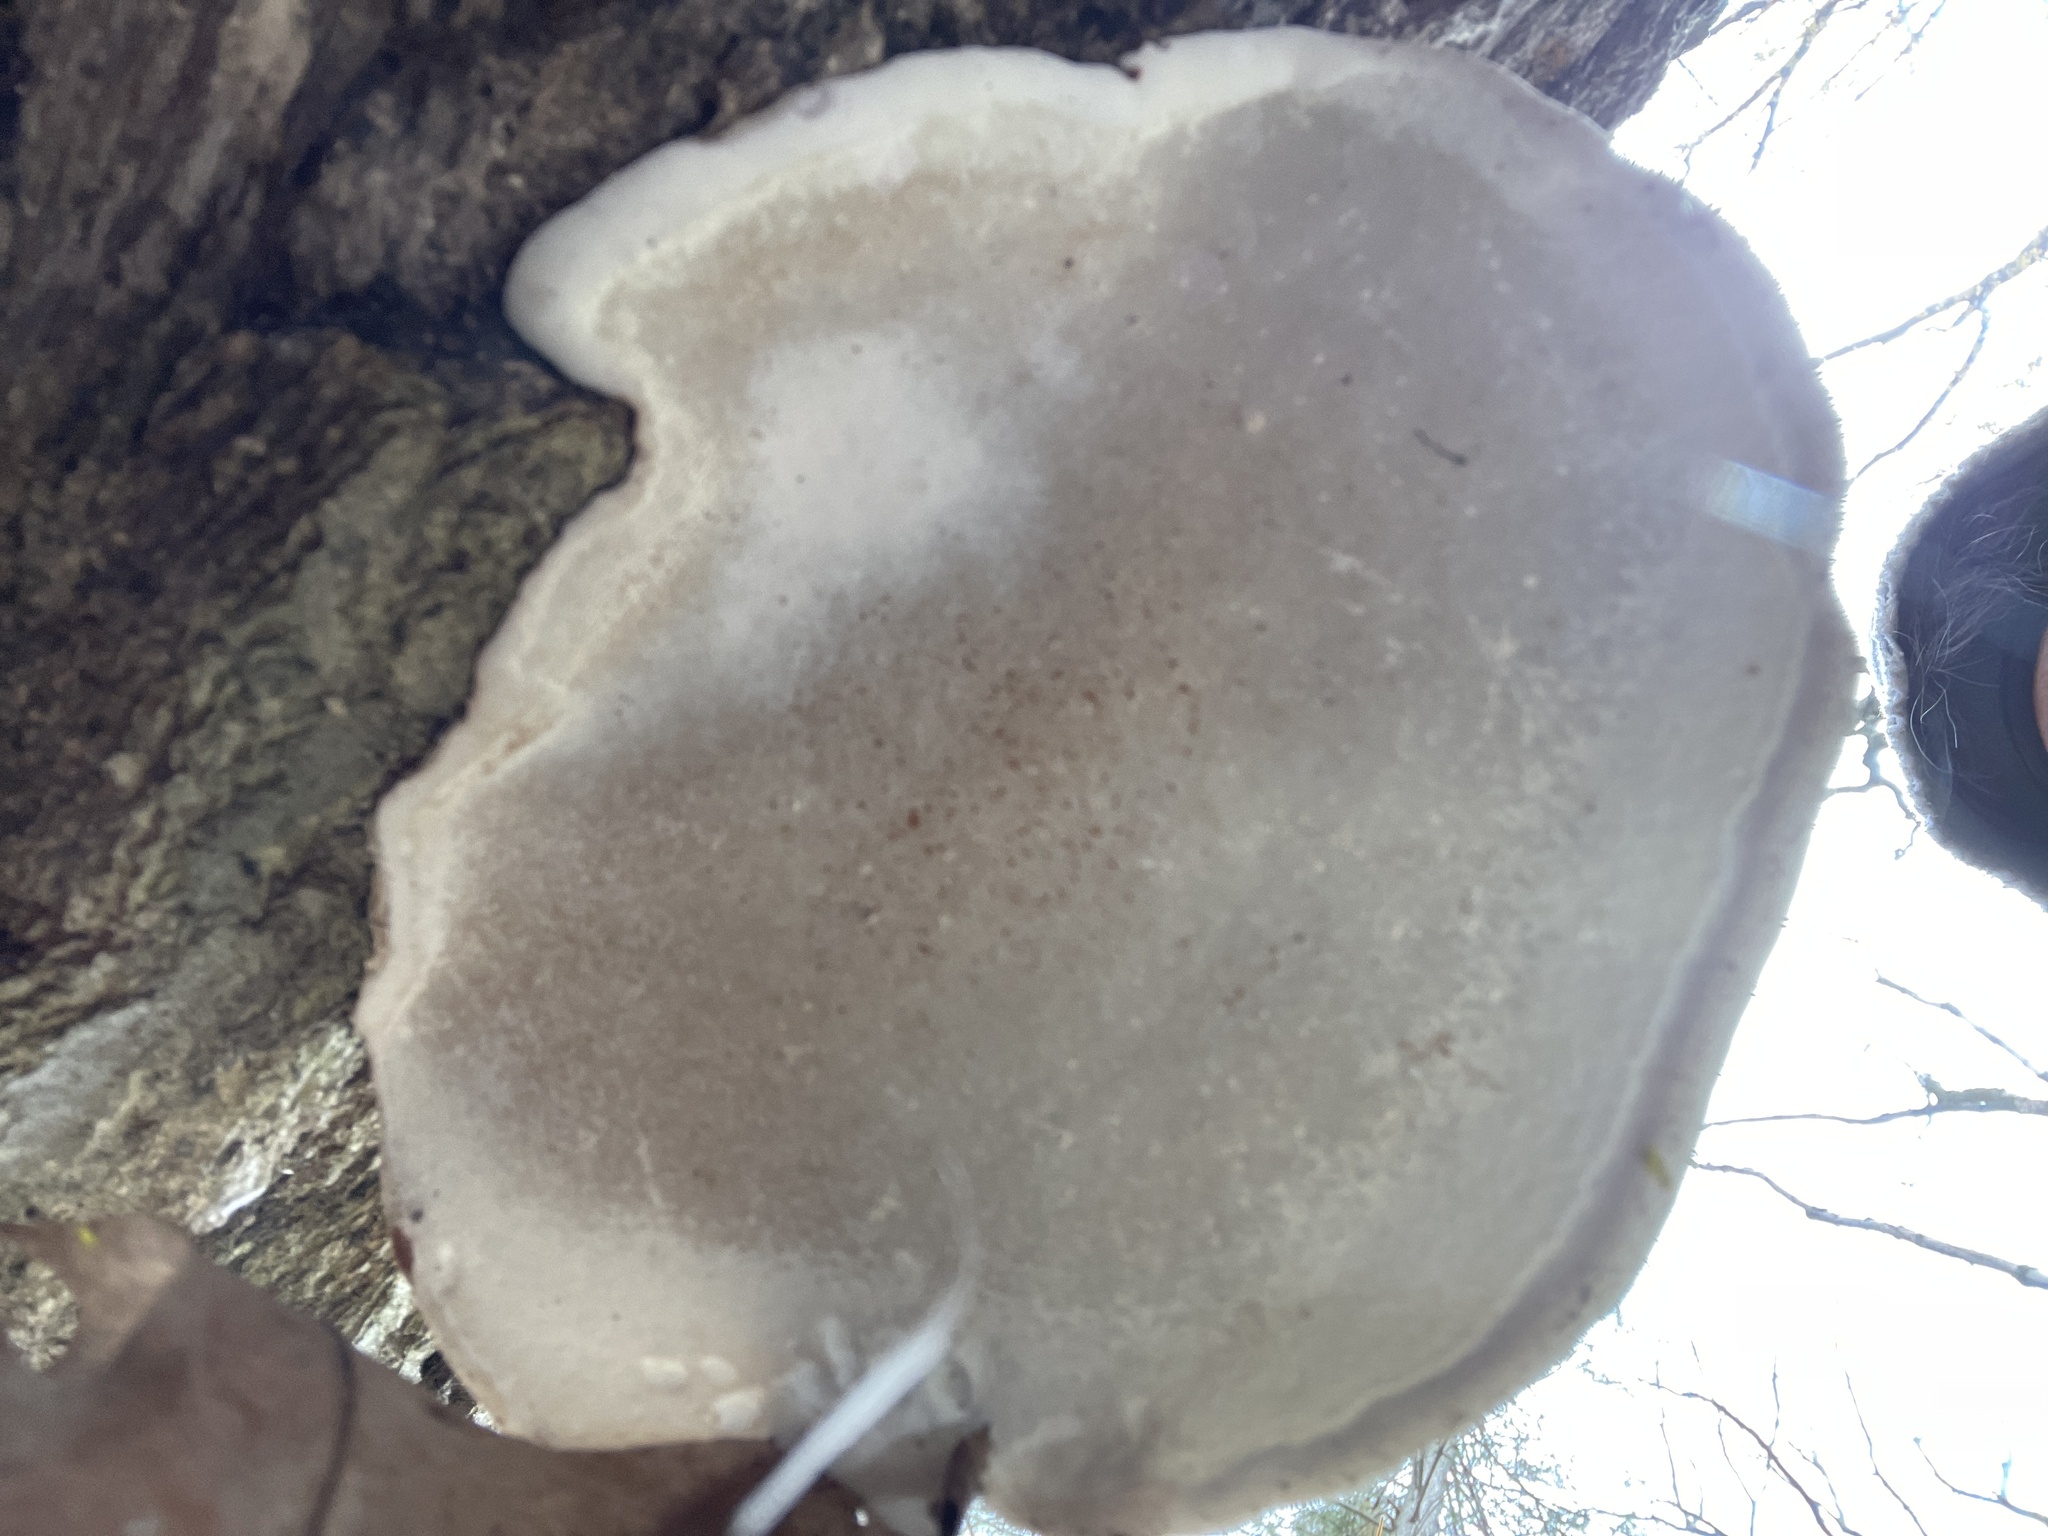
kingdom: Fungi
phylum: Basidiomycota
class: Agaricomycetes
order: Polyporales
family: Polyporaceae
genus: Ganoderma
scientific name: Ganoderma applanatum
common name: Artist's bracket
